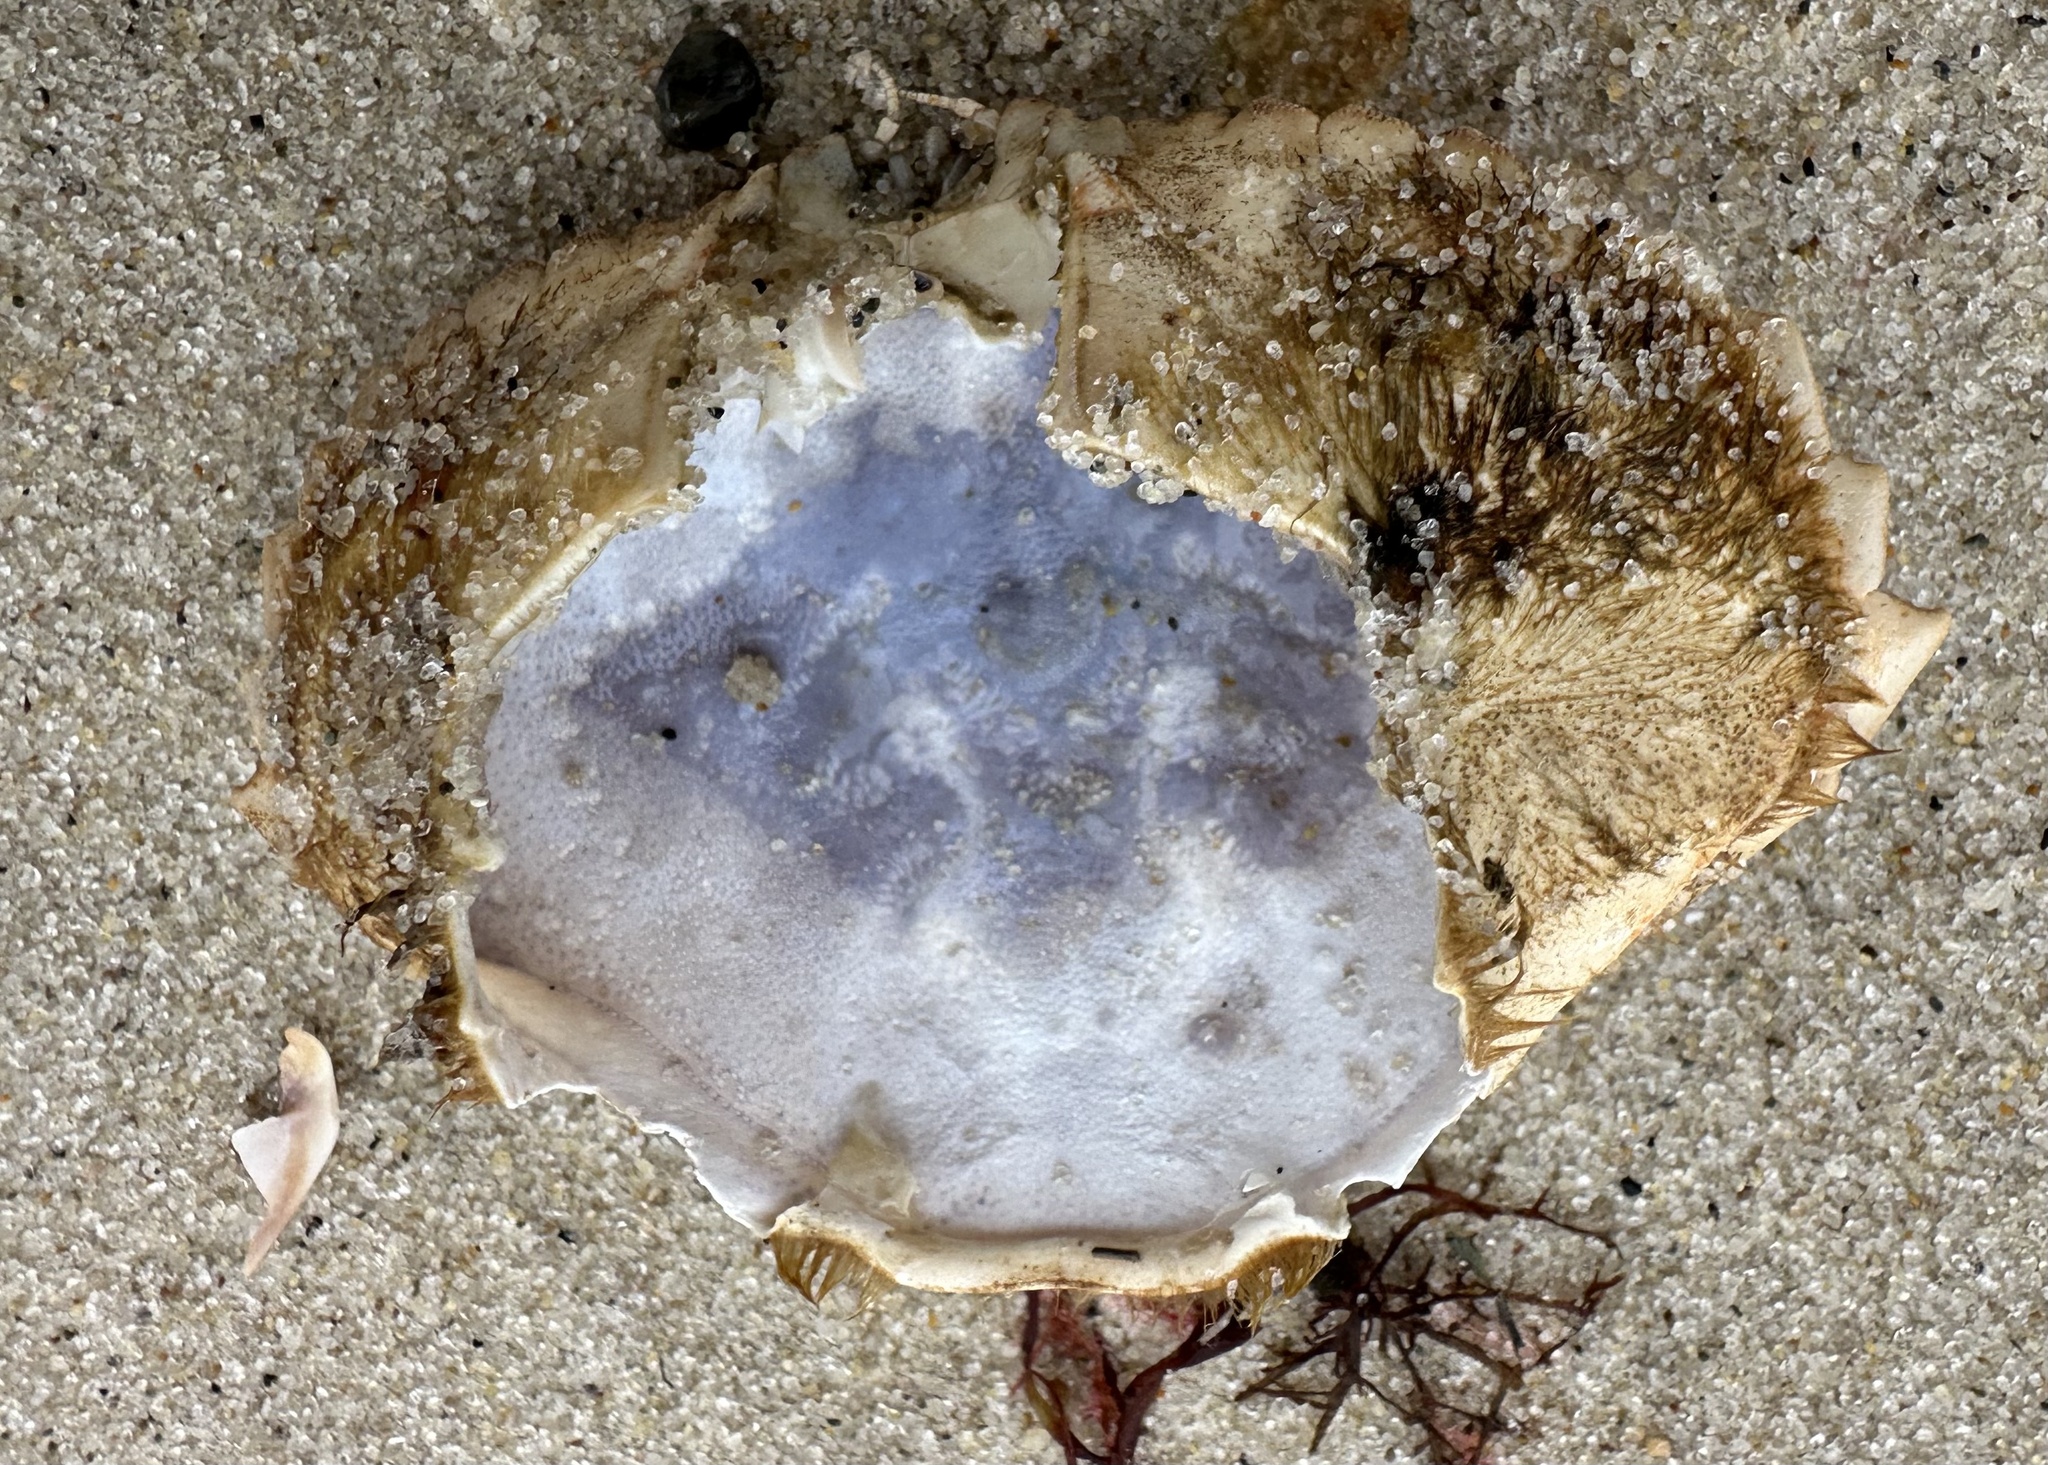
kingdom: Animalia
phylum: Arthropoda
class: Malacostraca
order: Decapoda
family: Cancridae
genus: Cancer
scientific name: Cancer irroratus
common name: Atlantic rock crab
